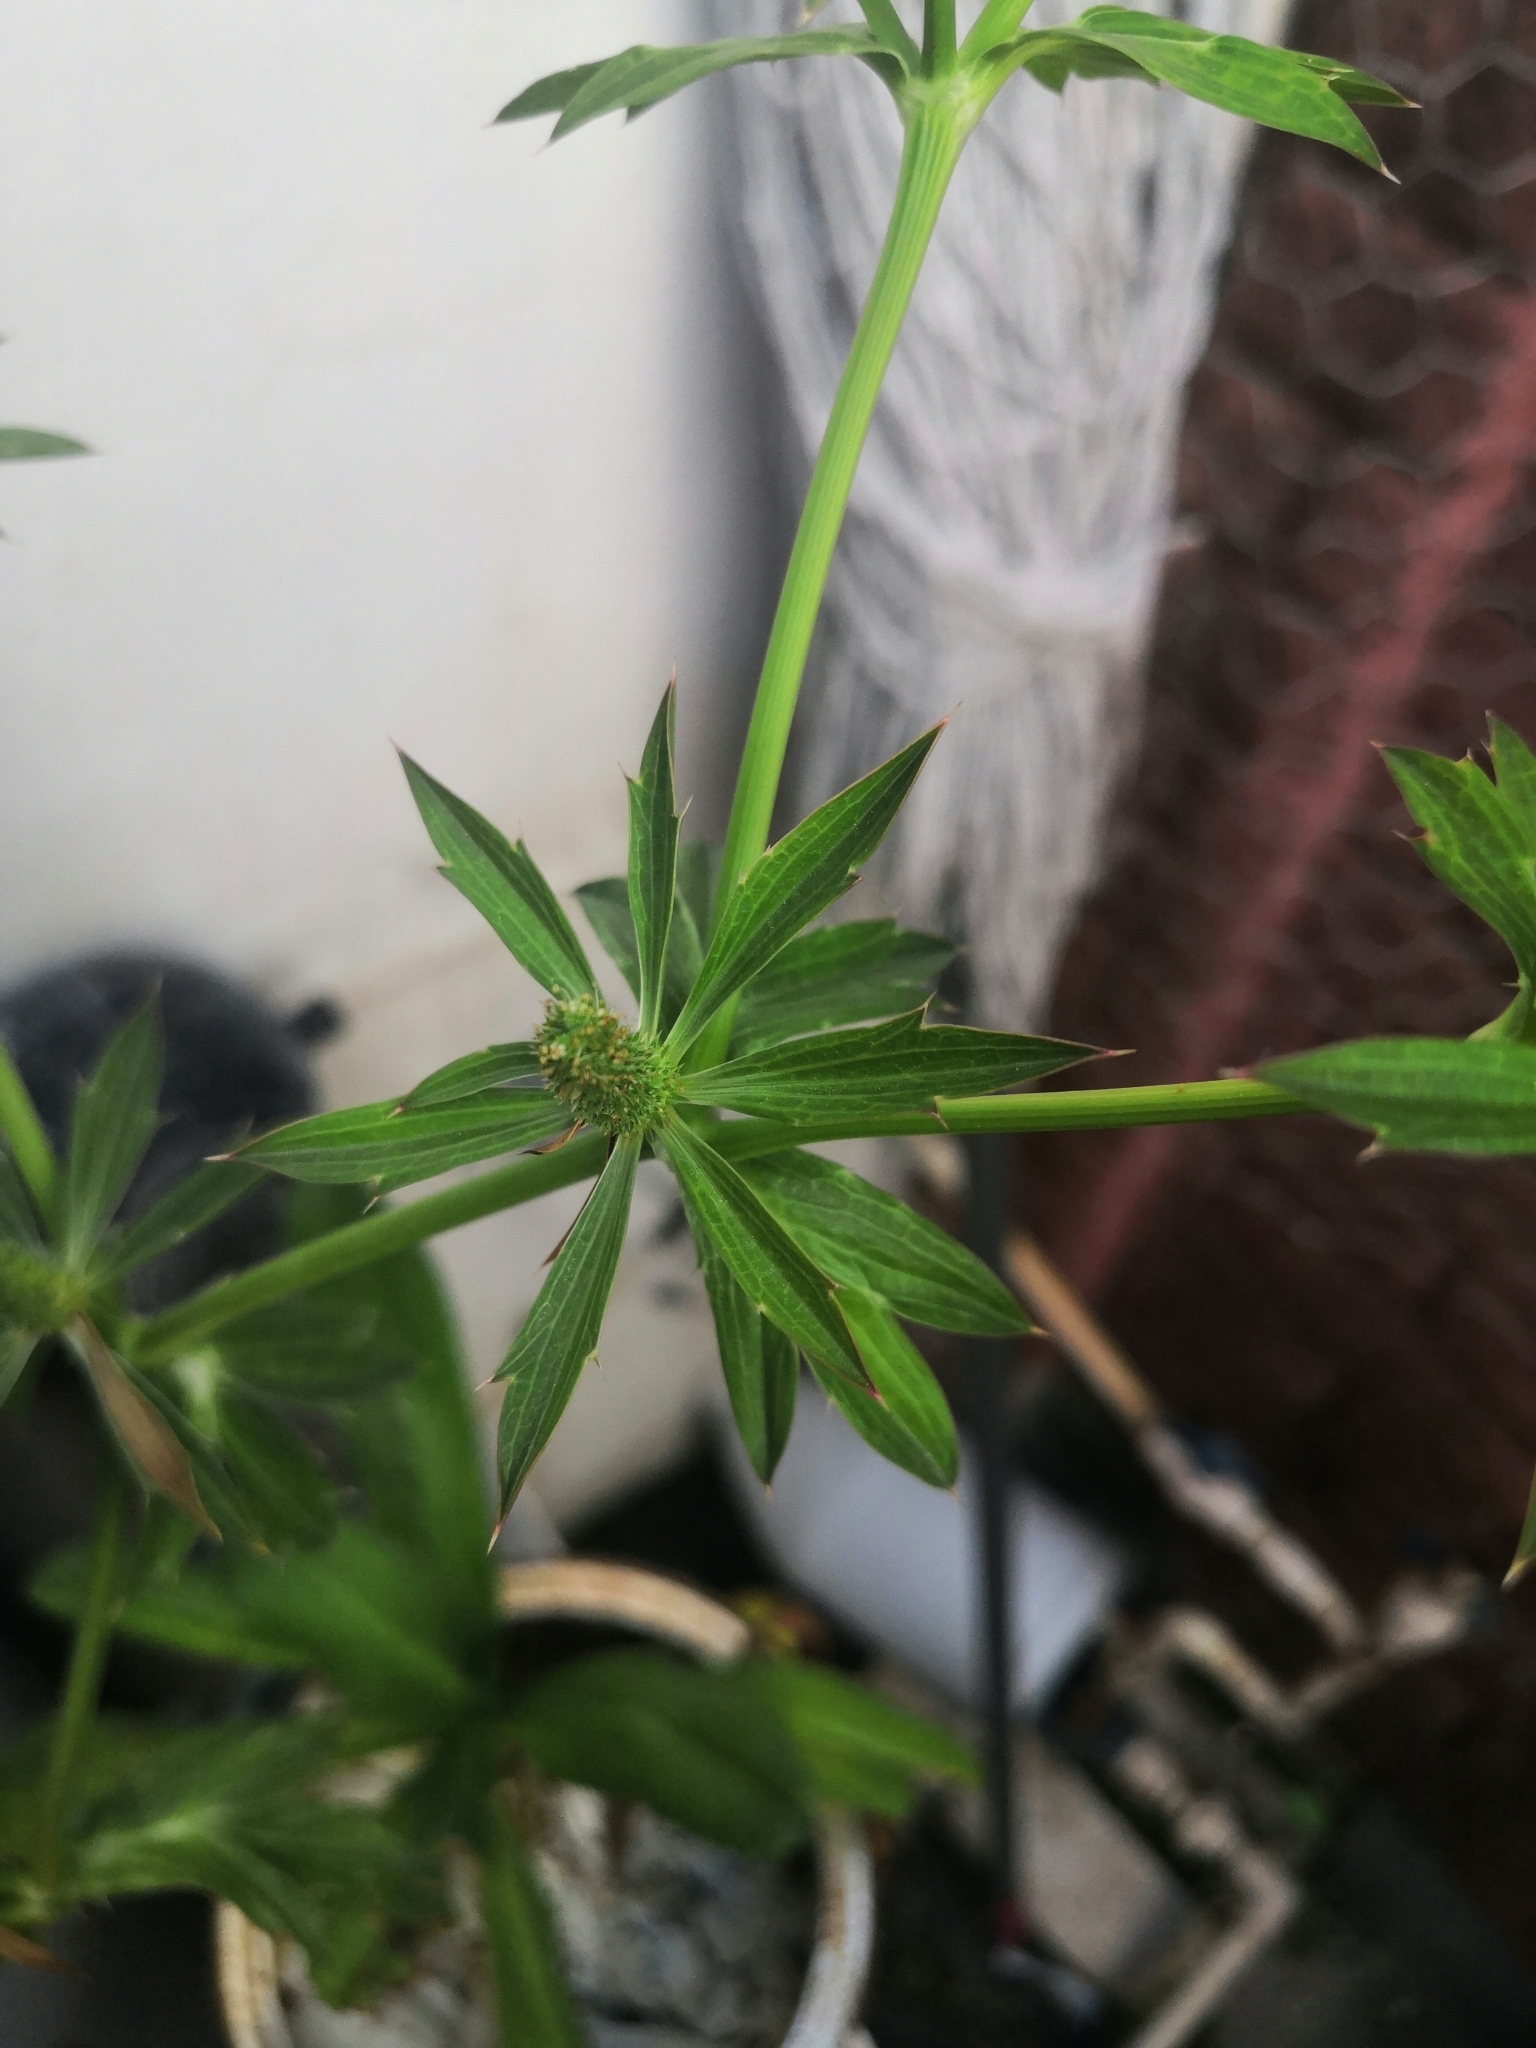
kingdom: Plantae
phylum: Tracheophyta
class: Magnoliopsida
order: Apiales
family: Apiaceae
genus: Eryngium
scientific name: Eryngium foetidum
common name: Fitweed
